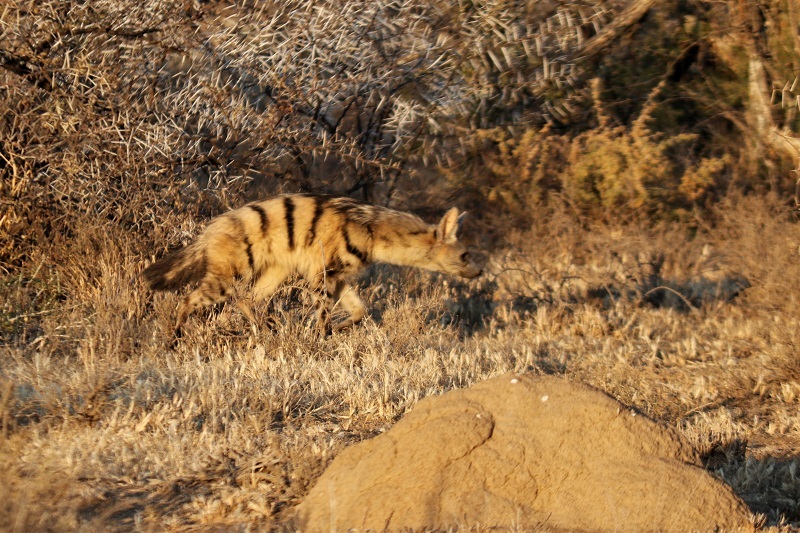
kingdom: Animalia
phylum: Chordata
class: Mammalia
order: Carnivora
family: Hyaenidae
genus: Proteles
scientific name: Proteles cristata
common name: Aardwolf
